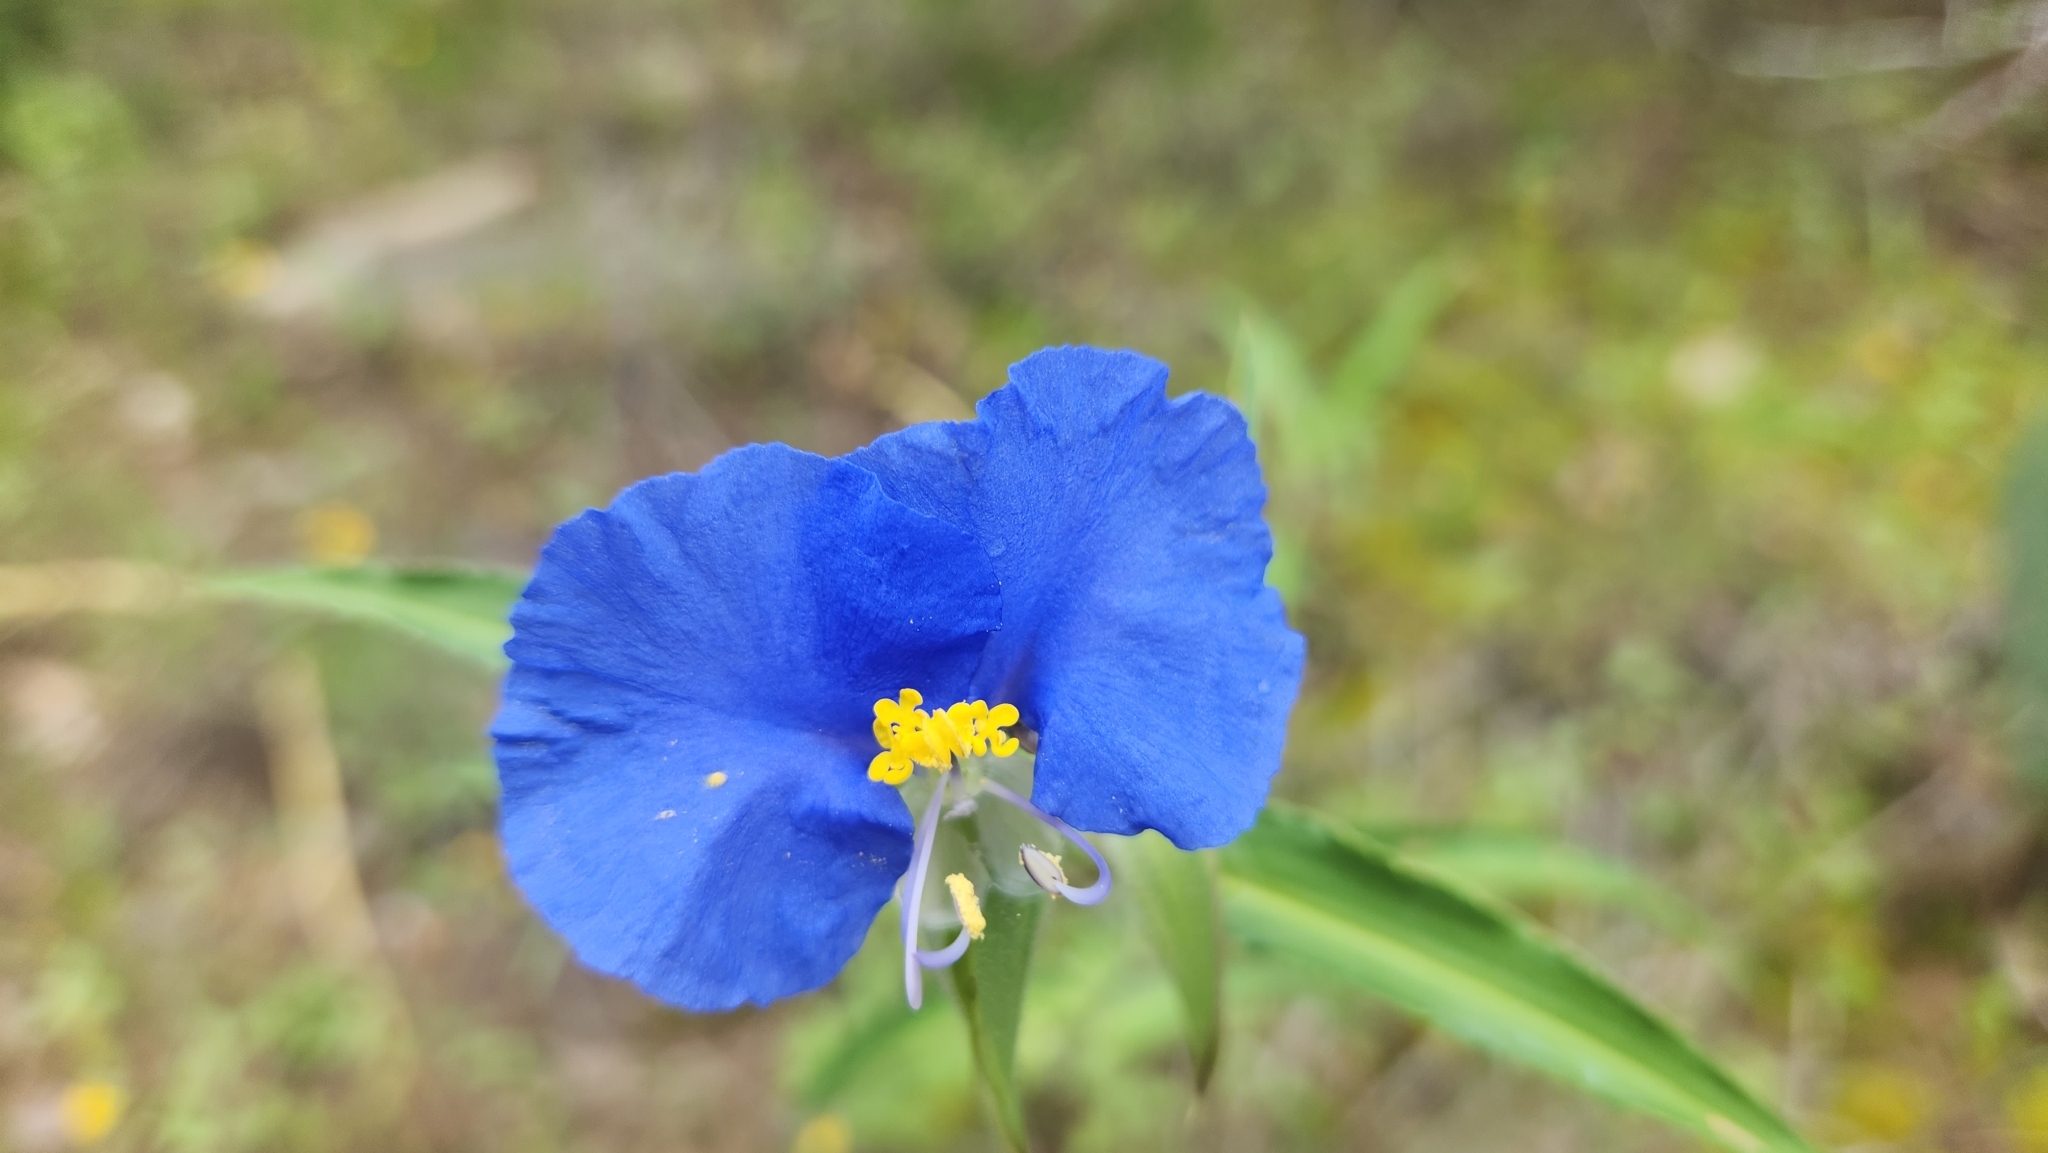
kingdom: Plantae
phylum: Tracheophyta
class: Liliopsida
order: Commelinales
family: Commelinaceae
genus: Commelina
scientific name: Commelina erecta
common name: Blousel blommetjie
